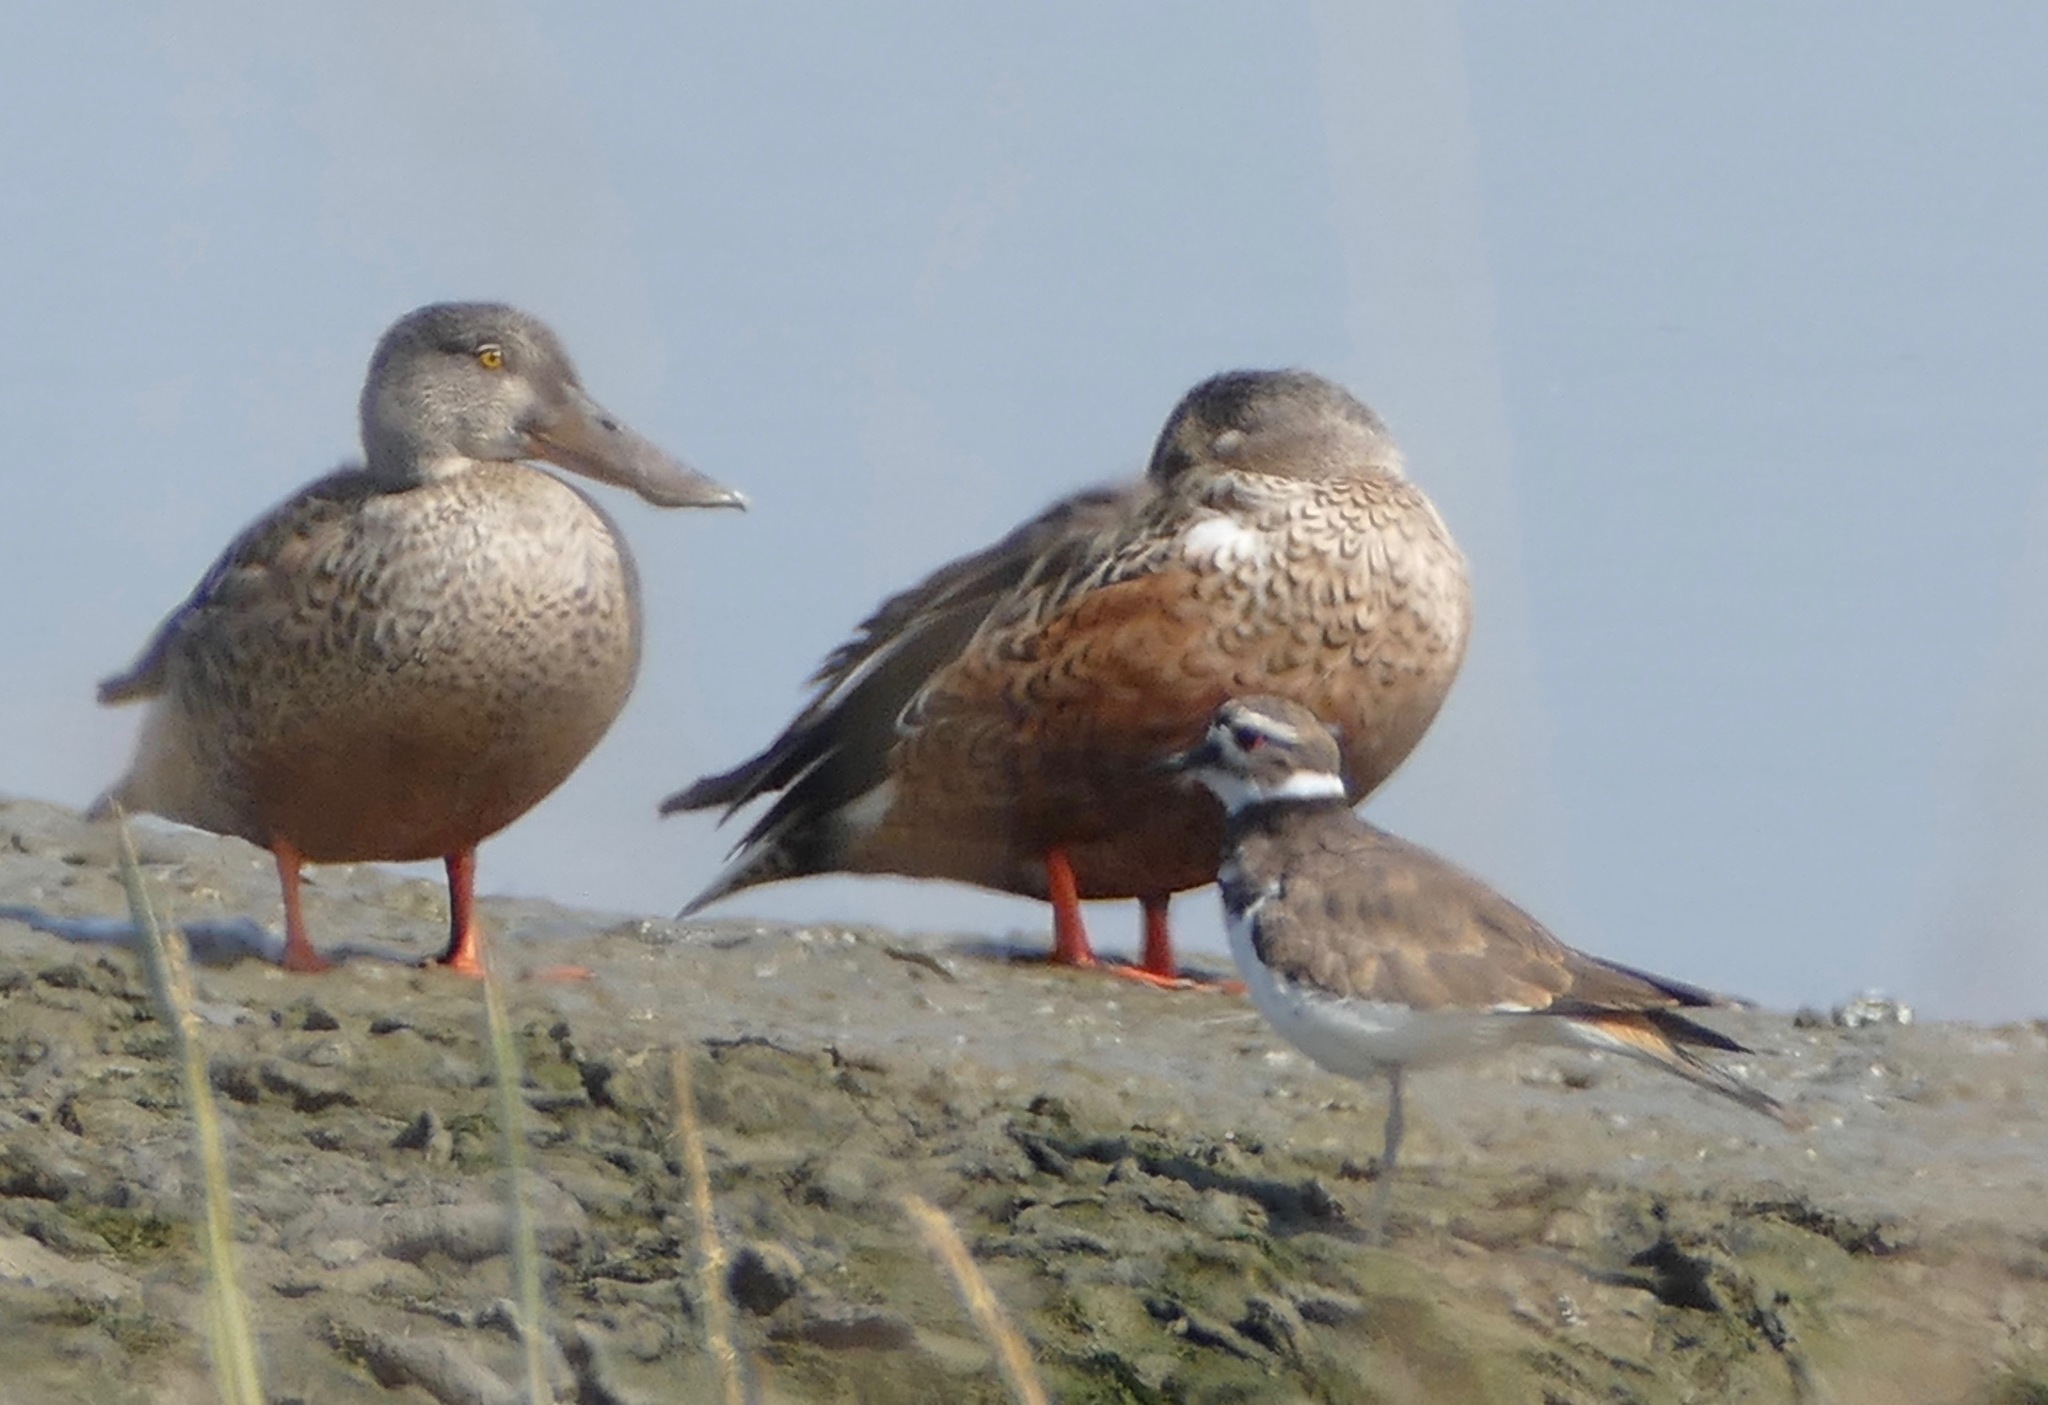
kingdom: Animalia
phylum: Chordata
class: Aves
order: Anseriformes
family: Anatidae
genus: Spatula
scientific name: Spatula clypeata
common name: Northern shoveler
